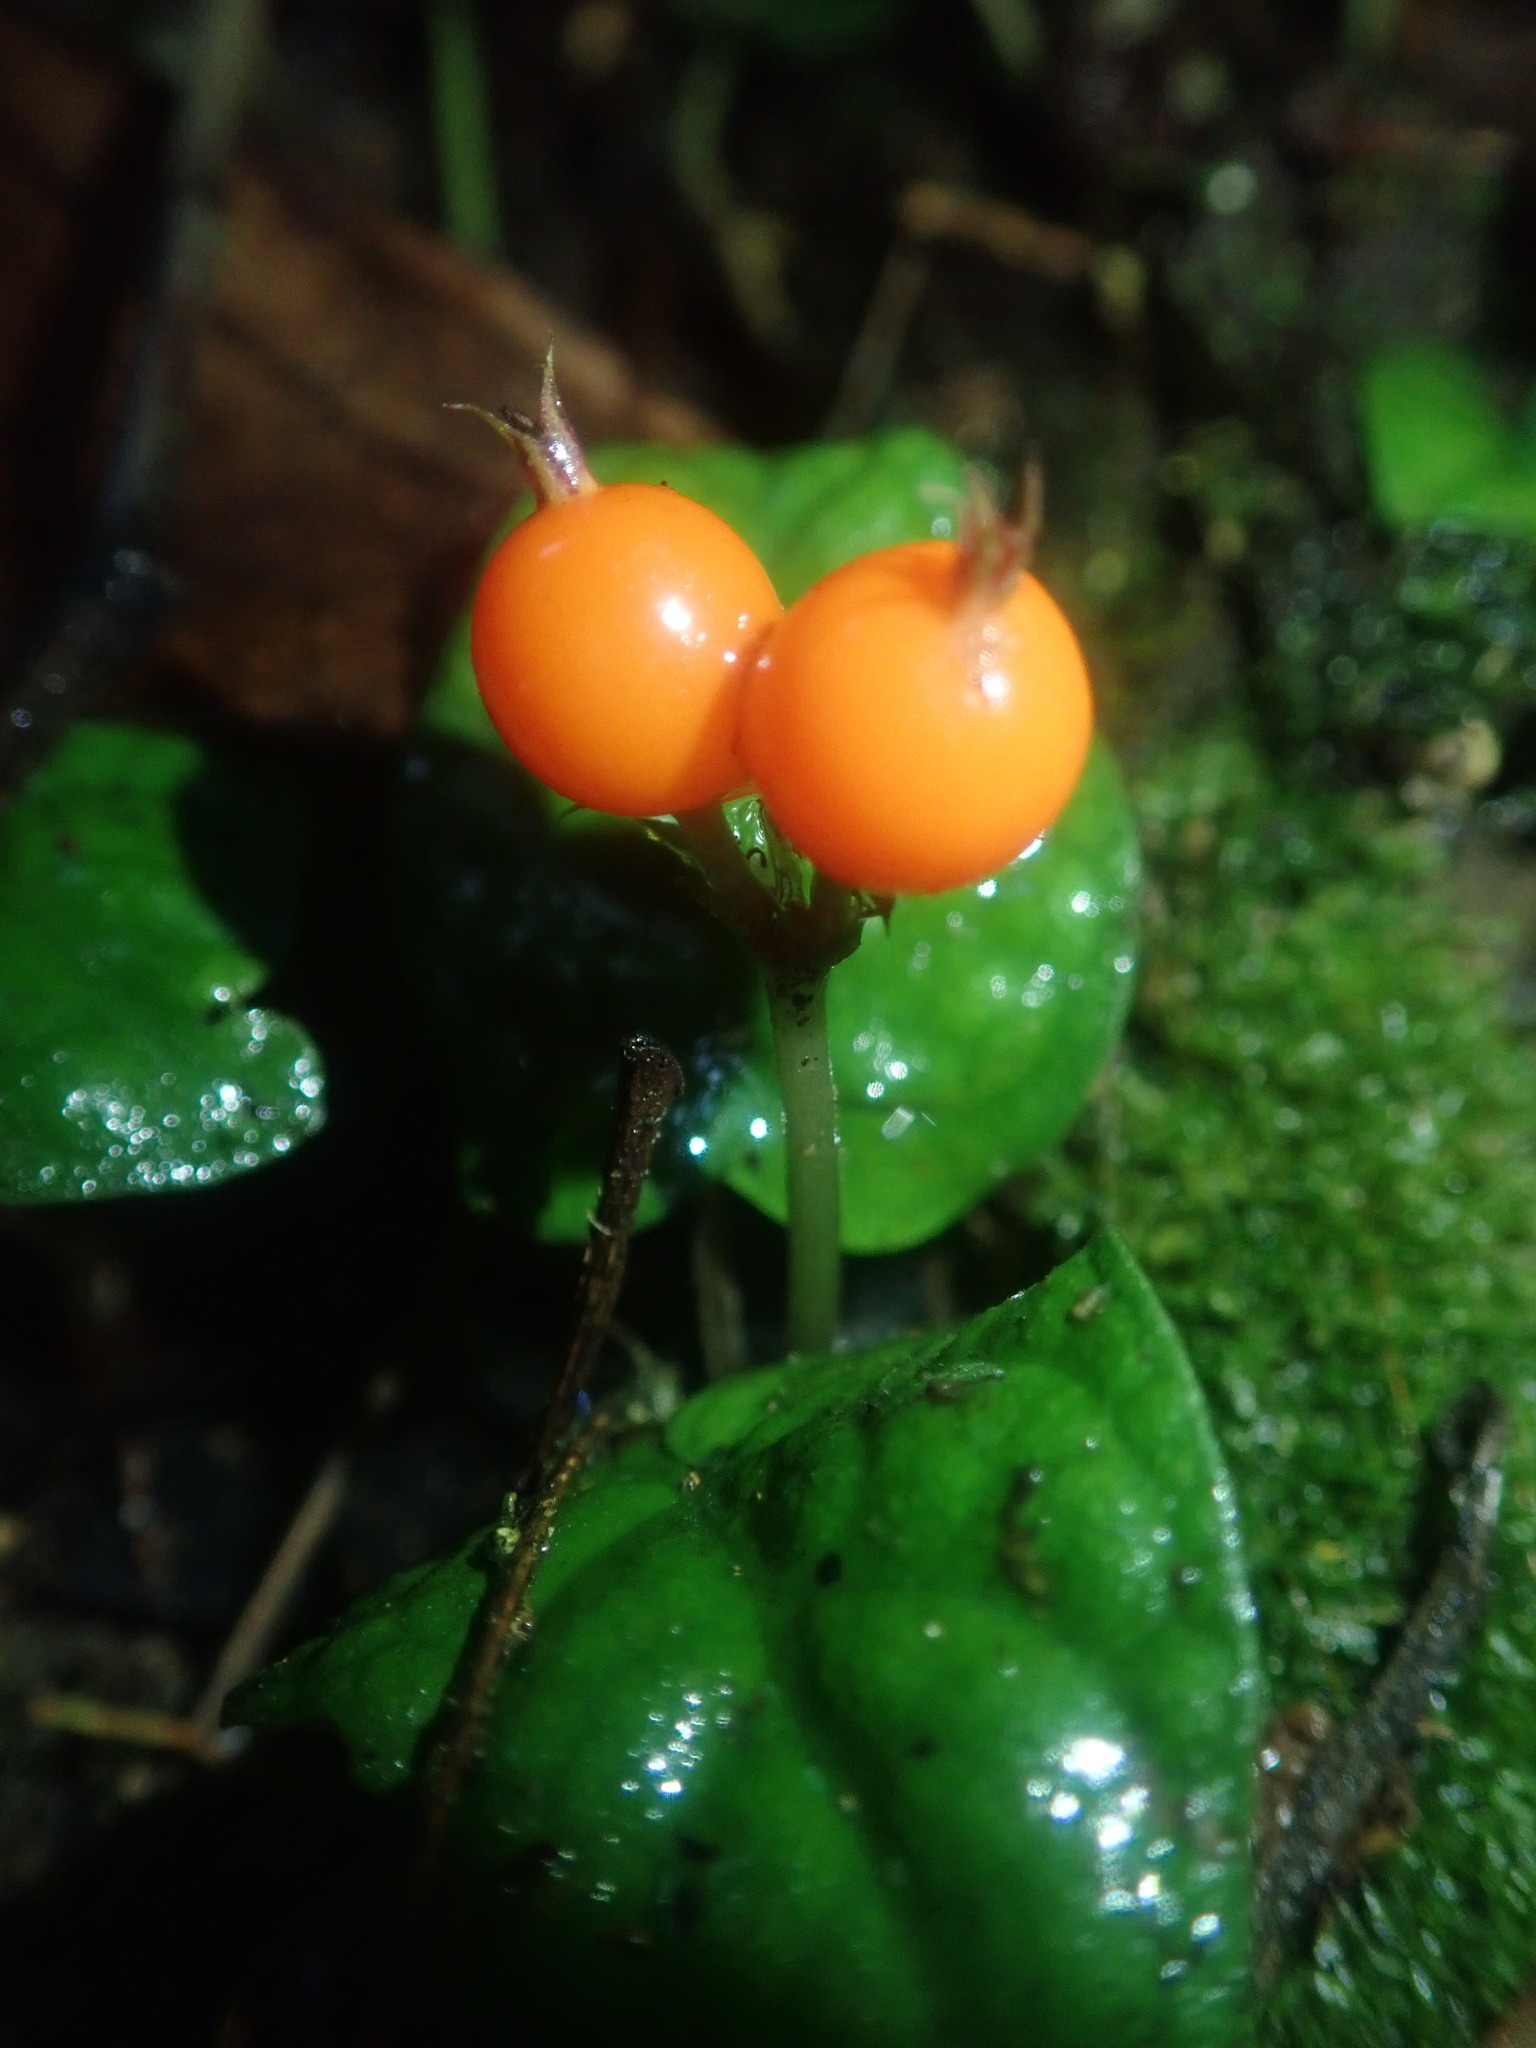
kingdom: Plantae
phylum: Tracheophyta
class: Magnoliopsida
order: Gentianales
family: Rubiaceae
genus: Geophila
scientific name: Geophila repens
